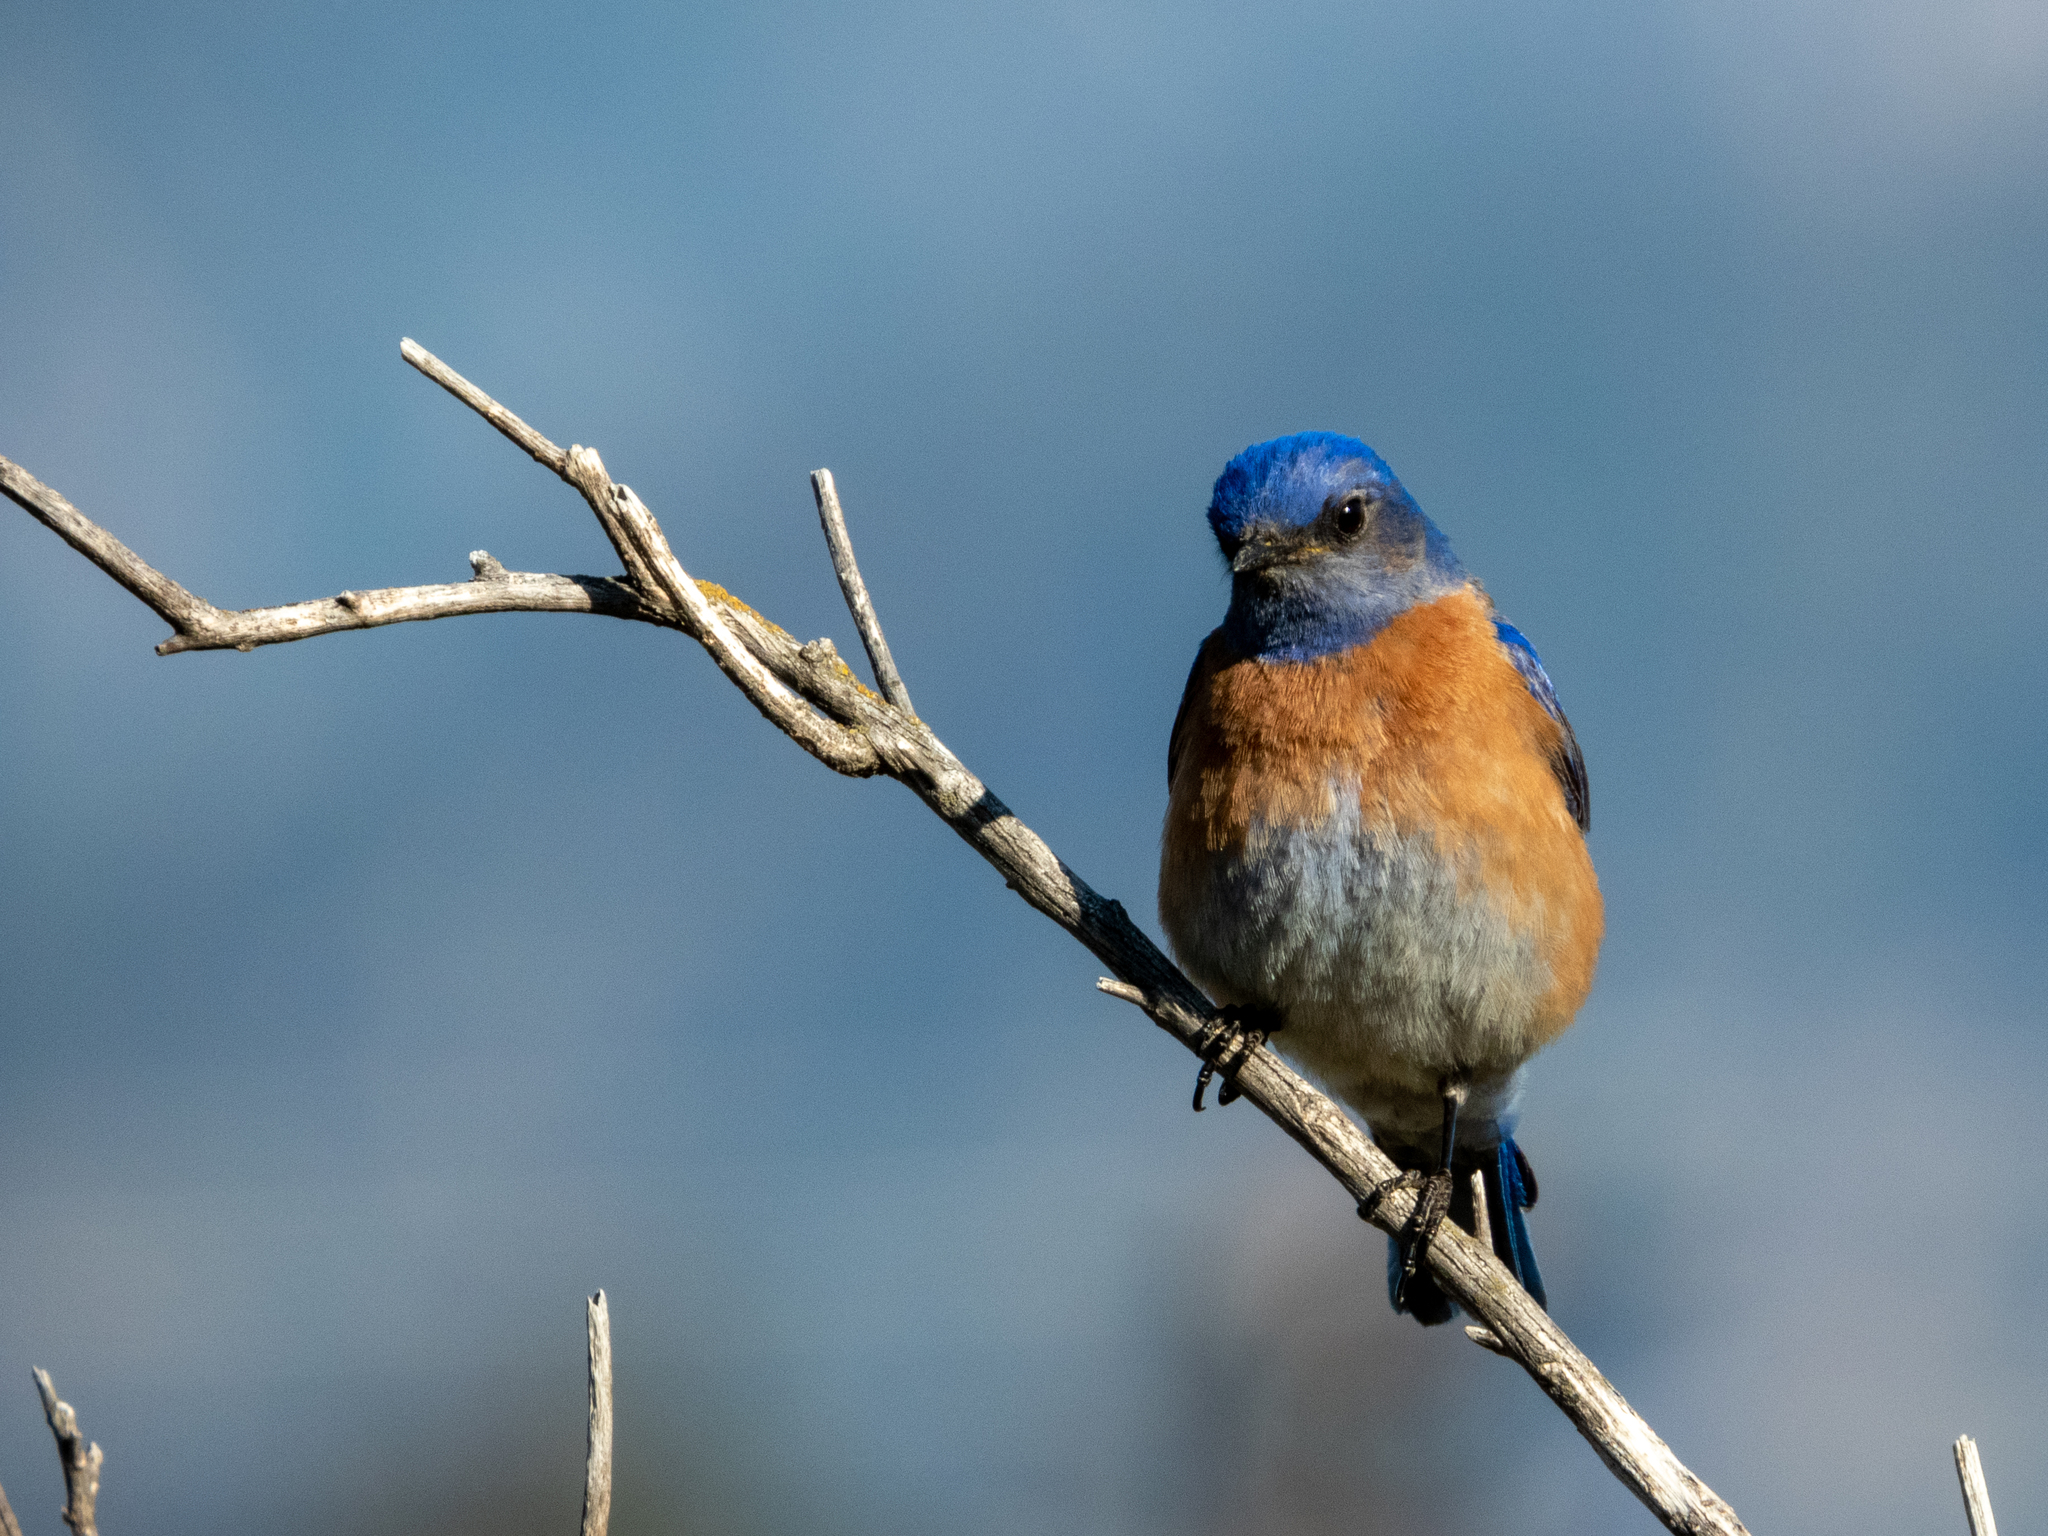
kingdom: Animalia
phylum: Chordata
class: Aves
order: Passeriformes
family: Turdidae
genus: Sialia
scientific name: Sialia mexicana
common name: Western bluebird
